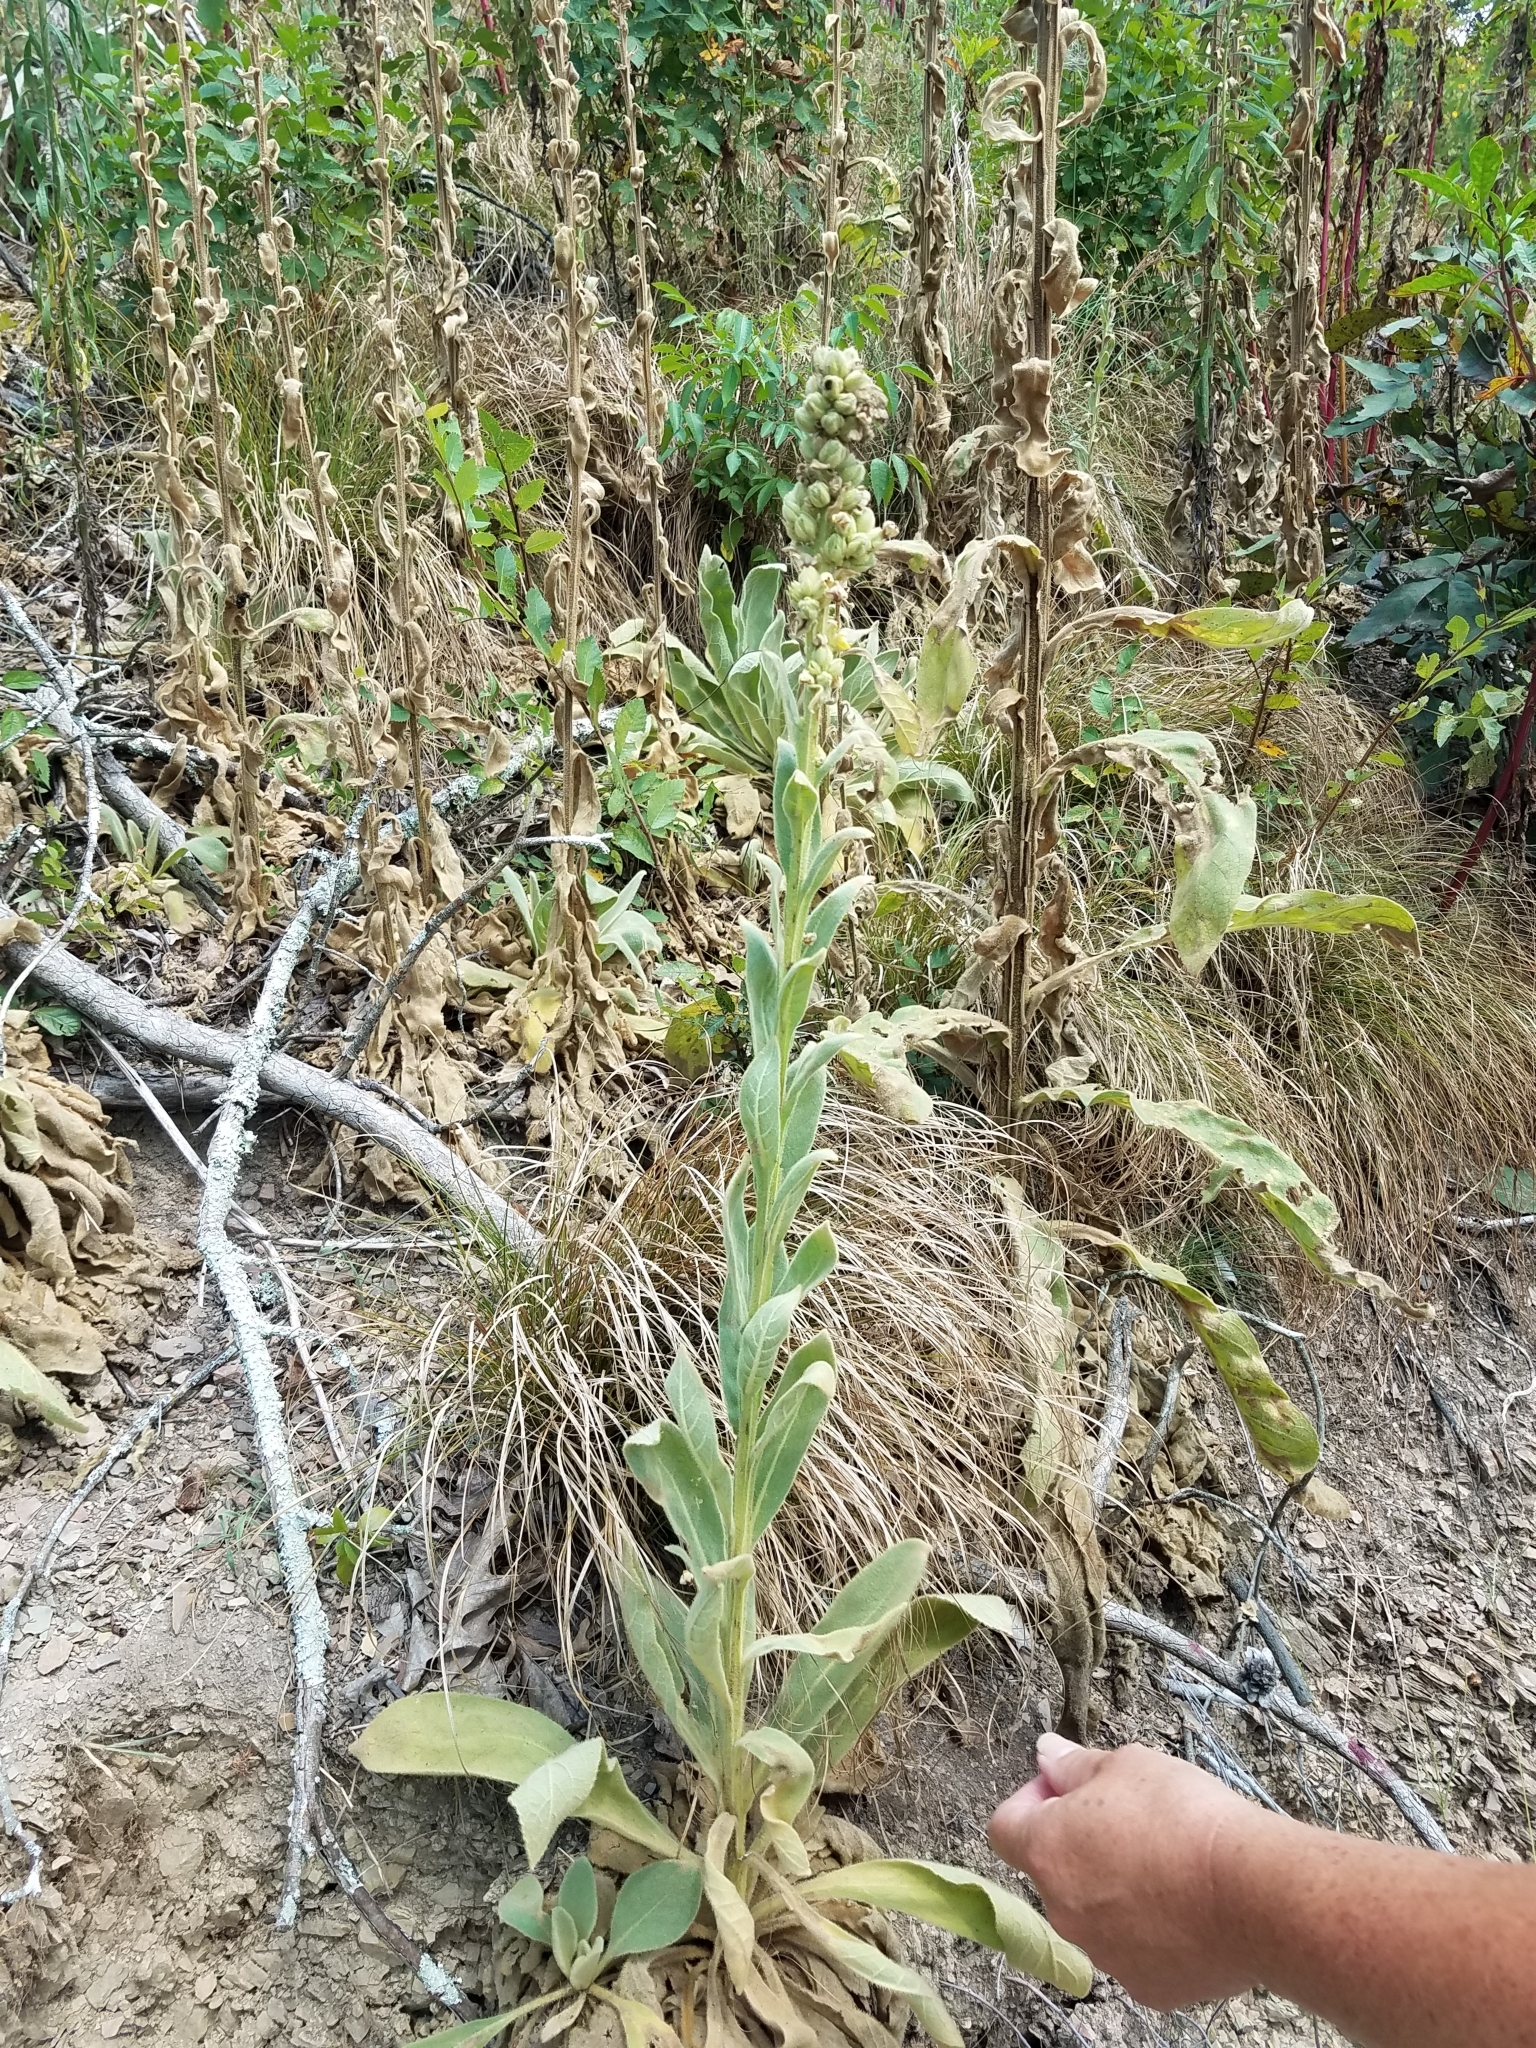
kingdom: Plantae
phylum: Tracheophyta
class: Magnoliopsida
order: Lamiales
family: Scrophulariaceae
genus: Verbascum
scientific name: Verbascum thapsus
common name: Common mullein
